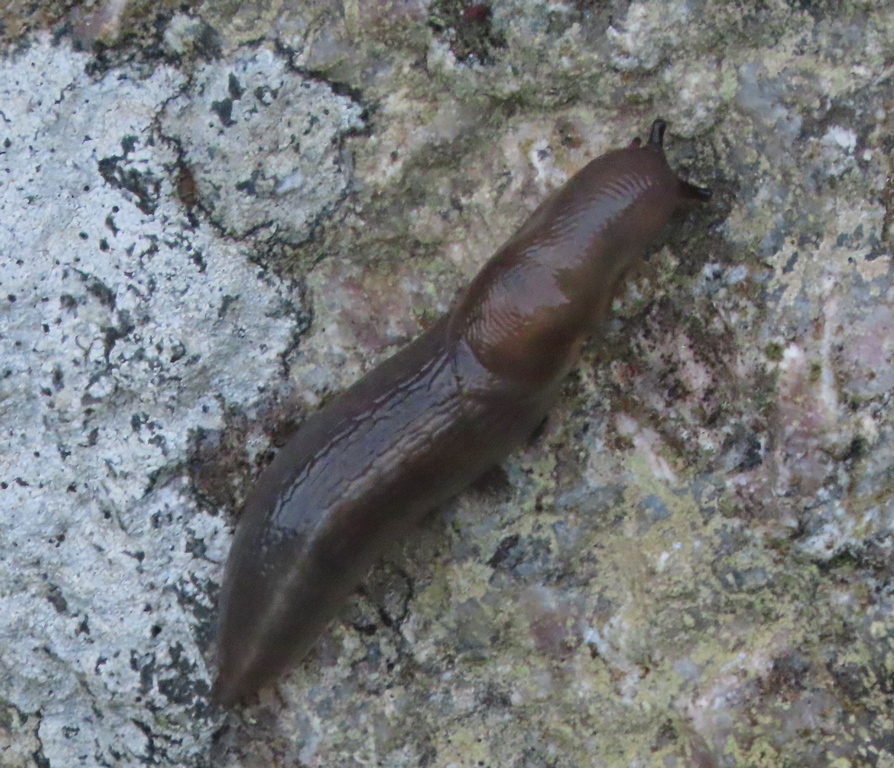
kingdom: Animalia
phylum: Mollusca
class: Gastropoda
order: Stylommatophora
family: Limacidae
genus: Lehmannia
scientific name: Lehmannia marginata
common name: Tree slug
